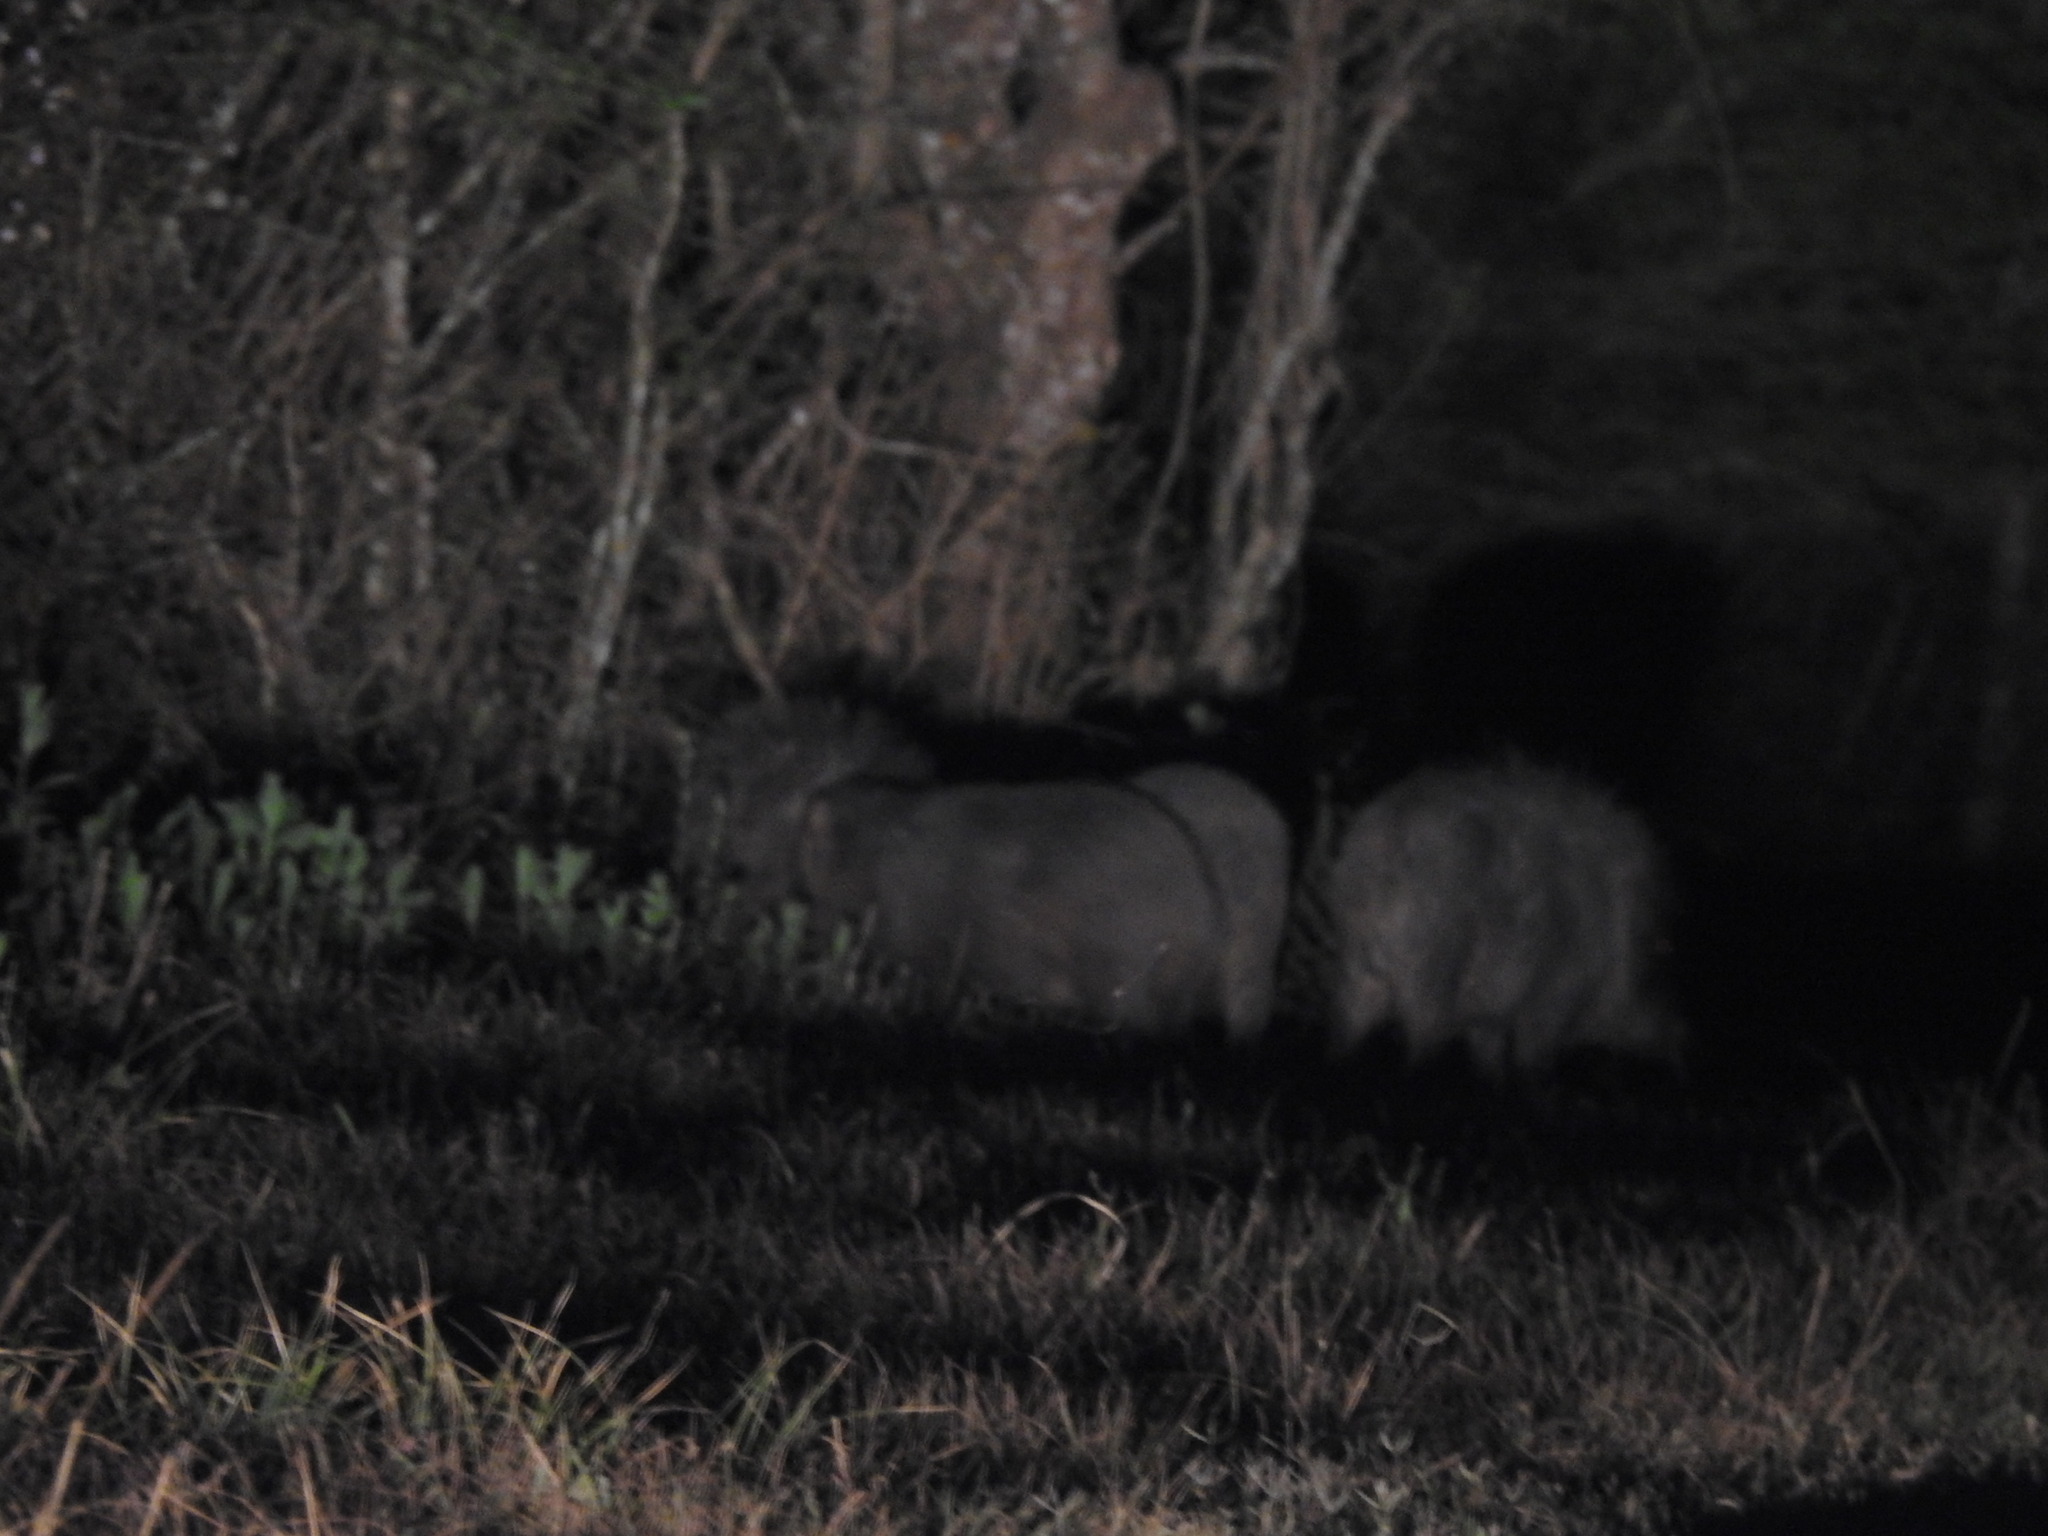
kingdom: Animalia
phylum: Chordata
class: Mammalia
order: Artiodactyla
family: Tayassuidae
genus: Tayassu
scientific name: Tayassu pecari
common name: White-lipped peccary
